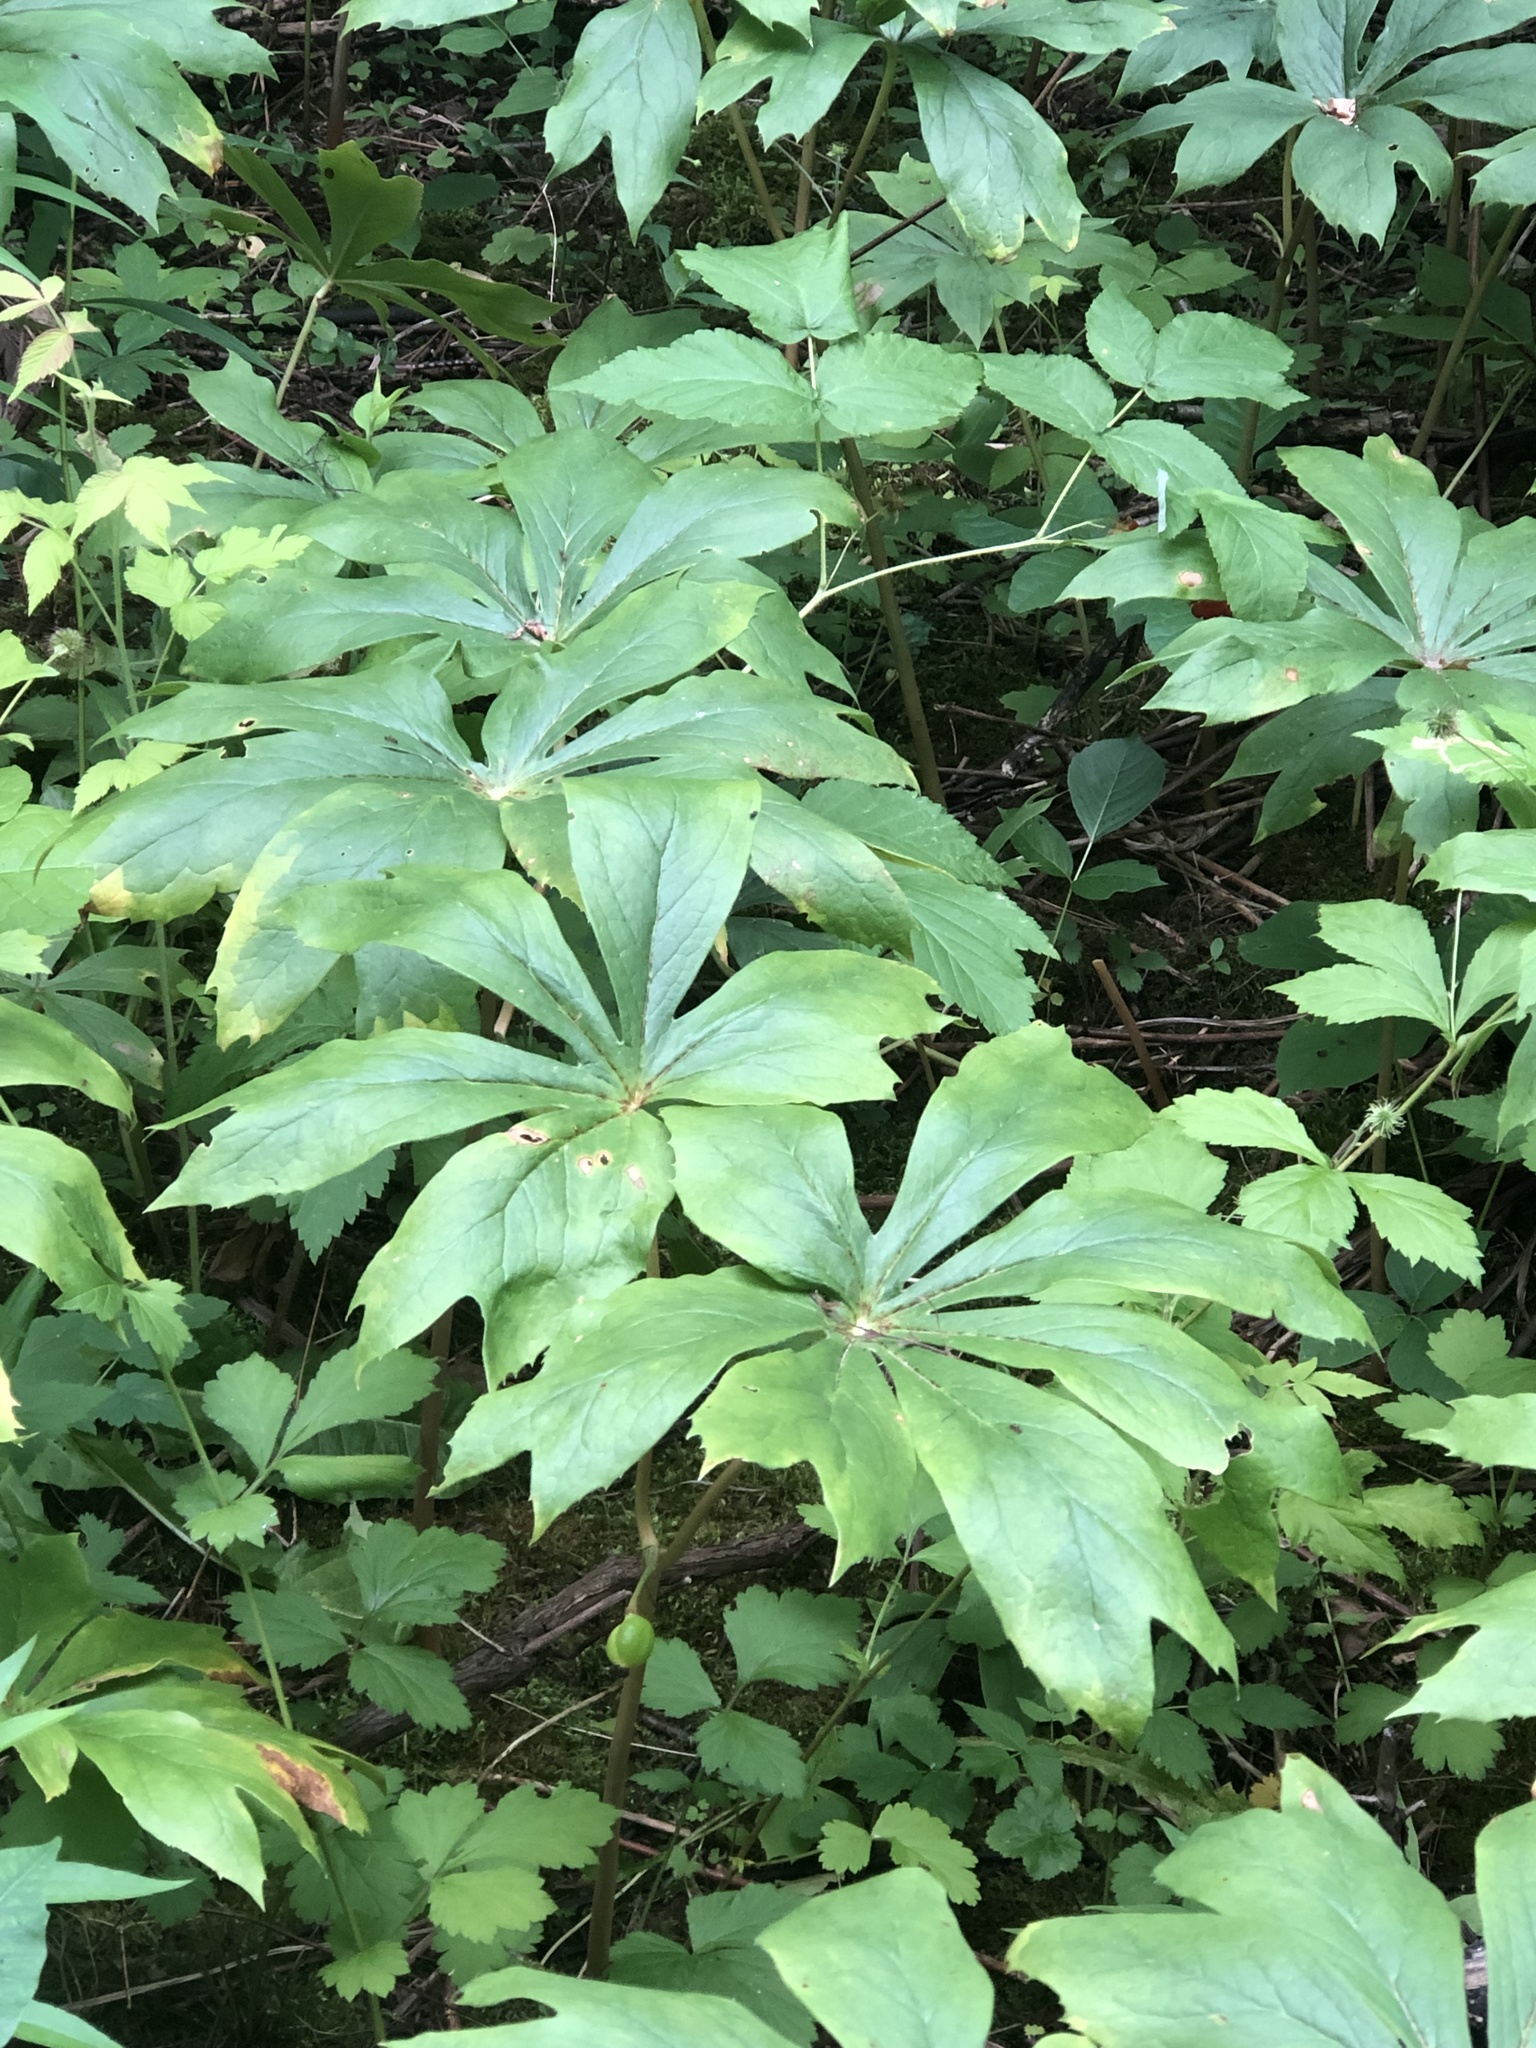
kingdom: Plantae
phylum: Tracheophyta
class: Magnoliopsida
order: Ranunculales
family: Berberidaceae
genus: Podophyllum
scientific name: Podophyllum peltatum
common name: Wild mandrake
